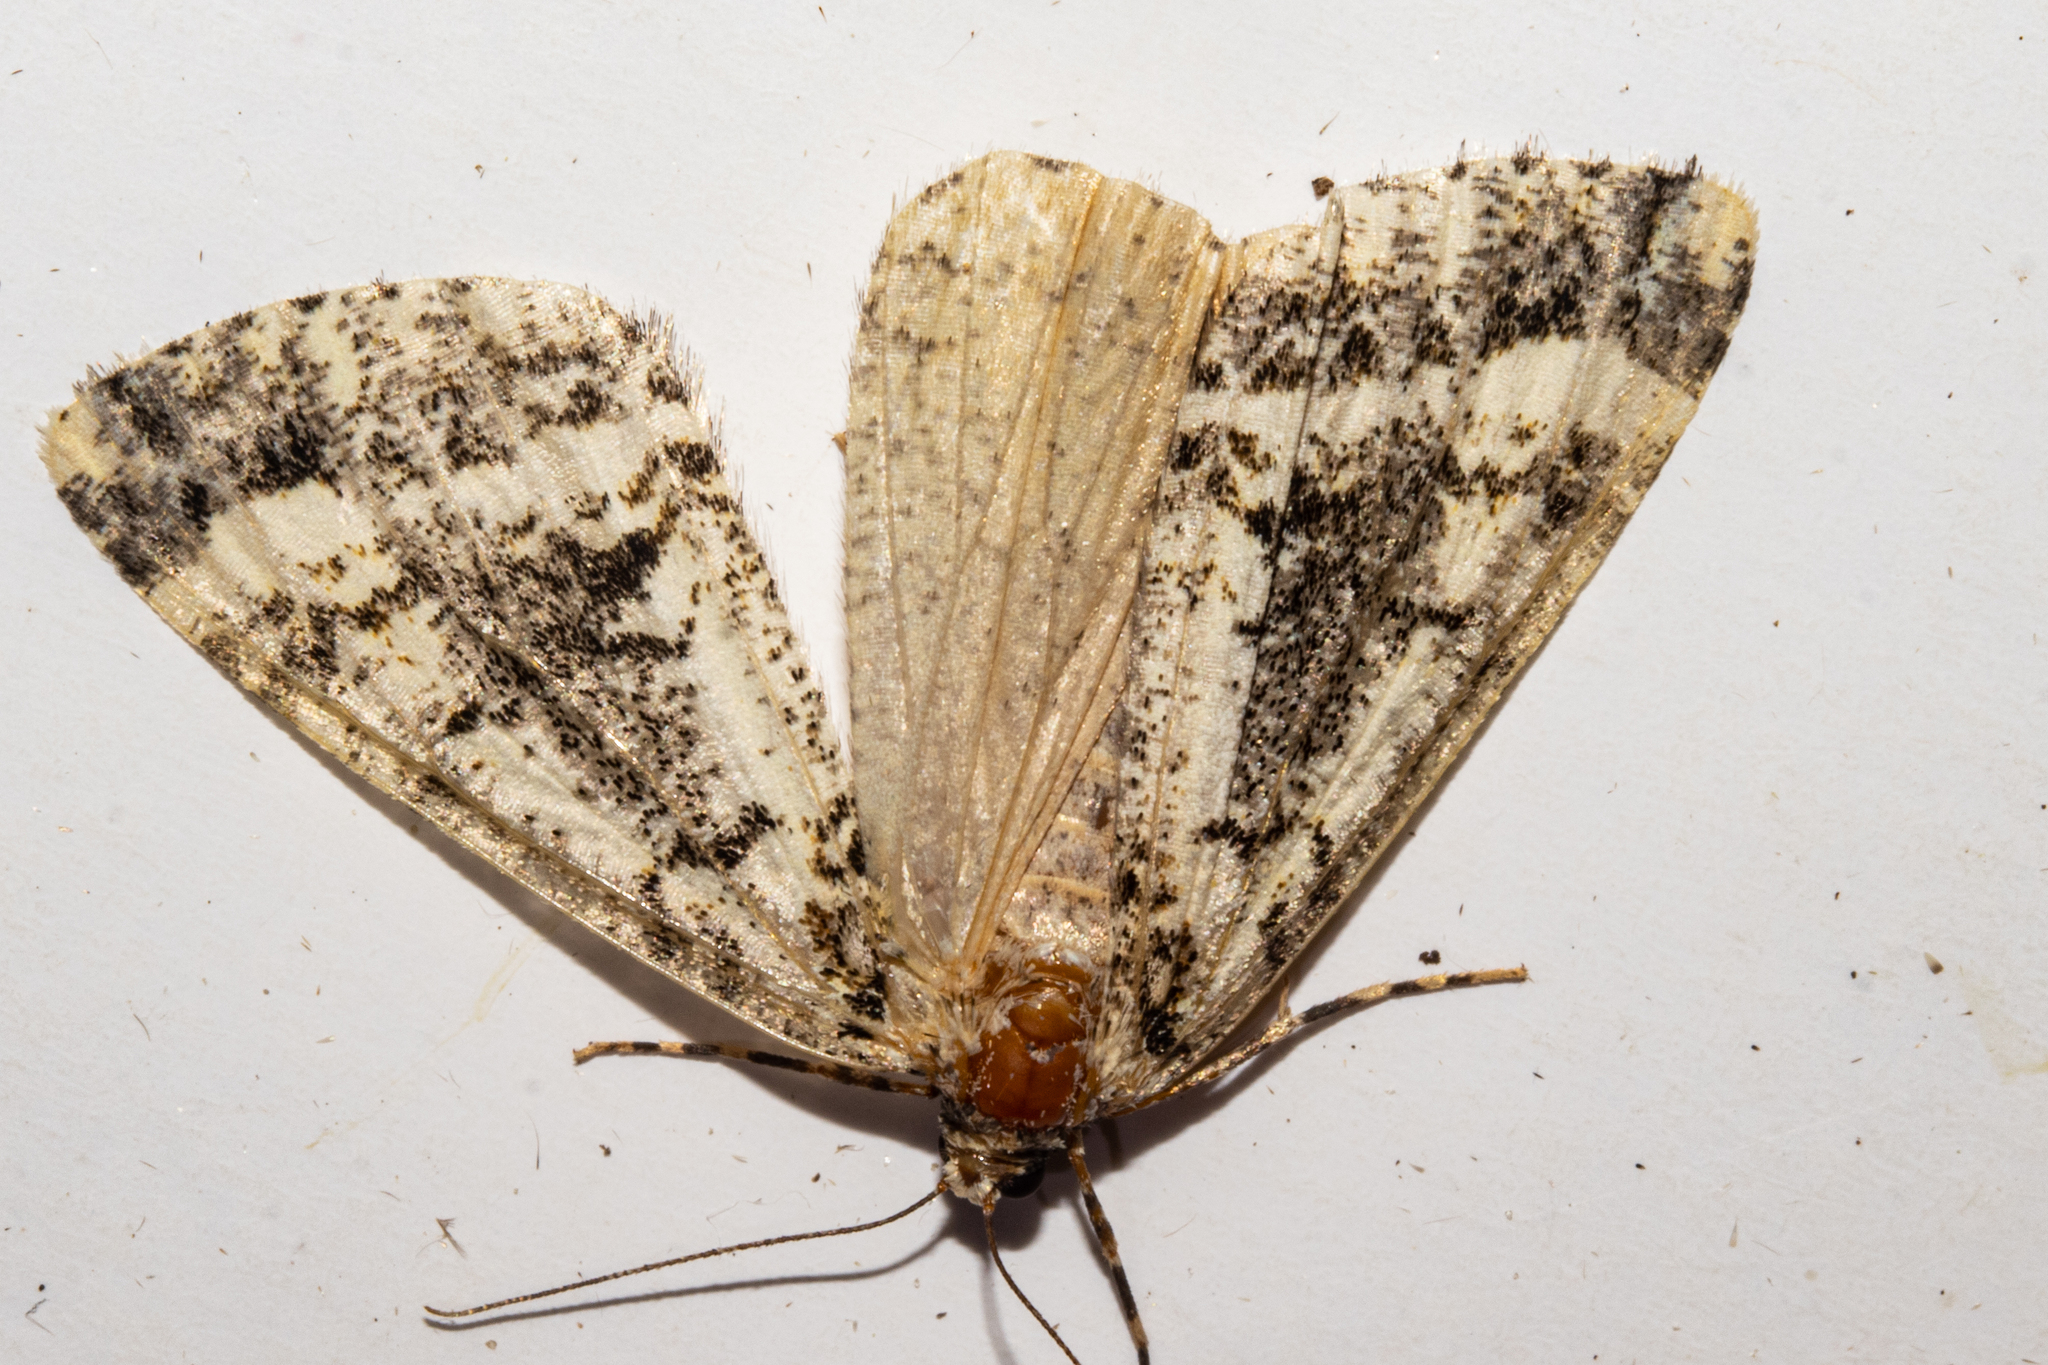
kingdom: Animalia
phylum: Arthropoda
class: Insecta
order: Lepidoptera
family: Geometridae
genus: Pseudocoremia
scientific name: Pseudocoremia leucelaea
